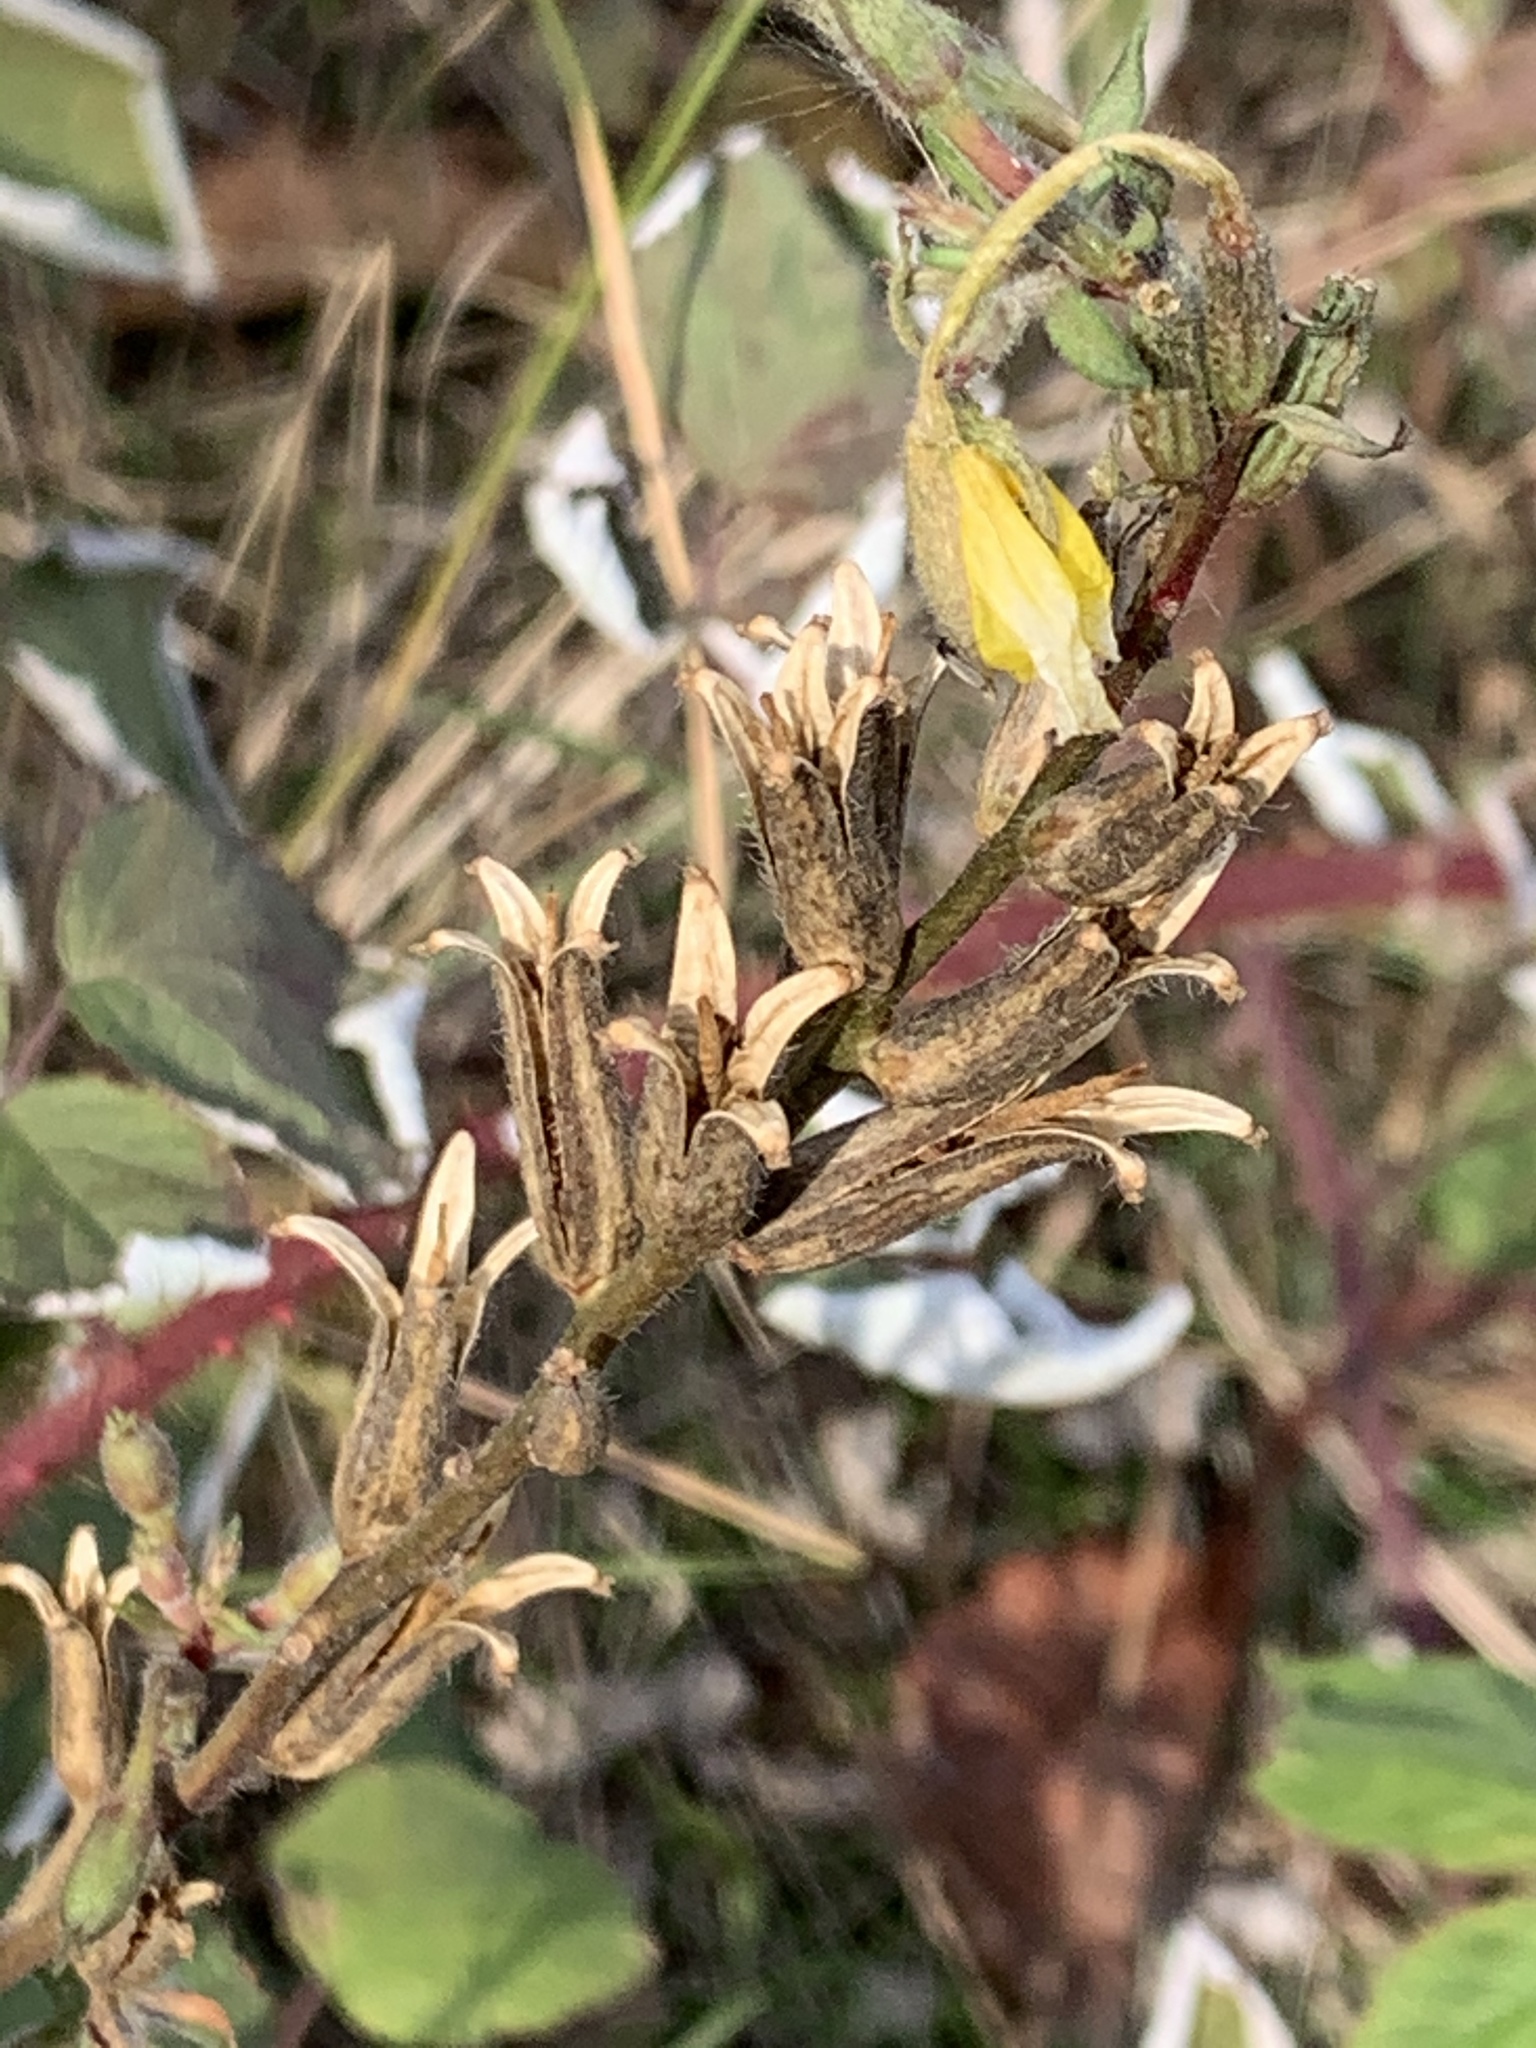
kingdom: Plantae
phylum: Tracheophyta
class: Magnoliopsida
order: Myrtales
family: Onagraceae
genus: Oenothera
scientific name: Oenothera biennis
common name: Common evening-primrose
